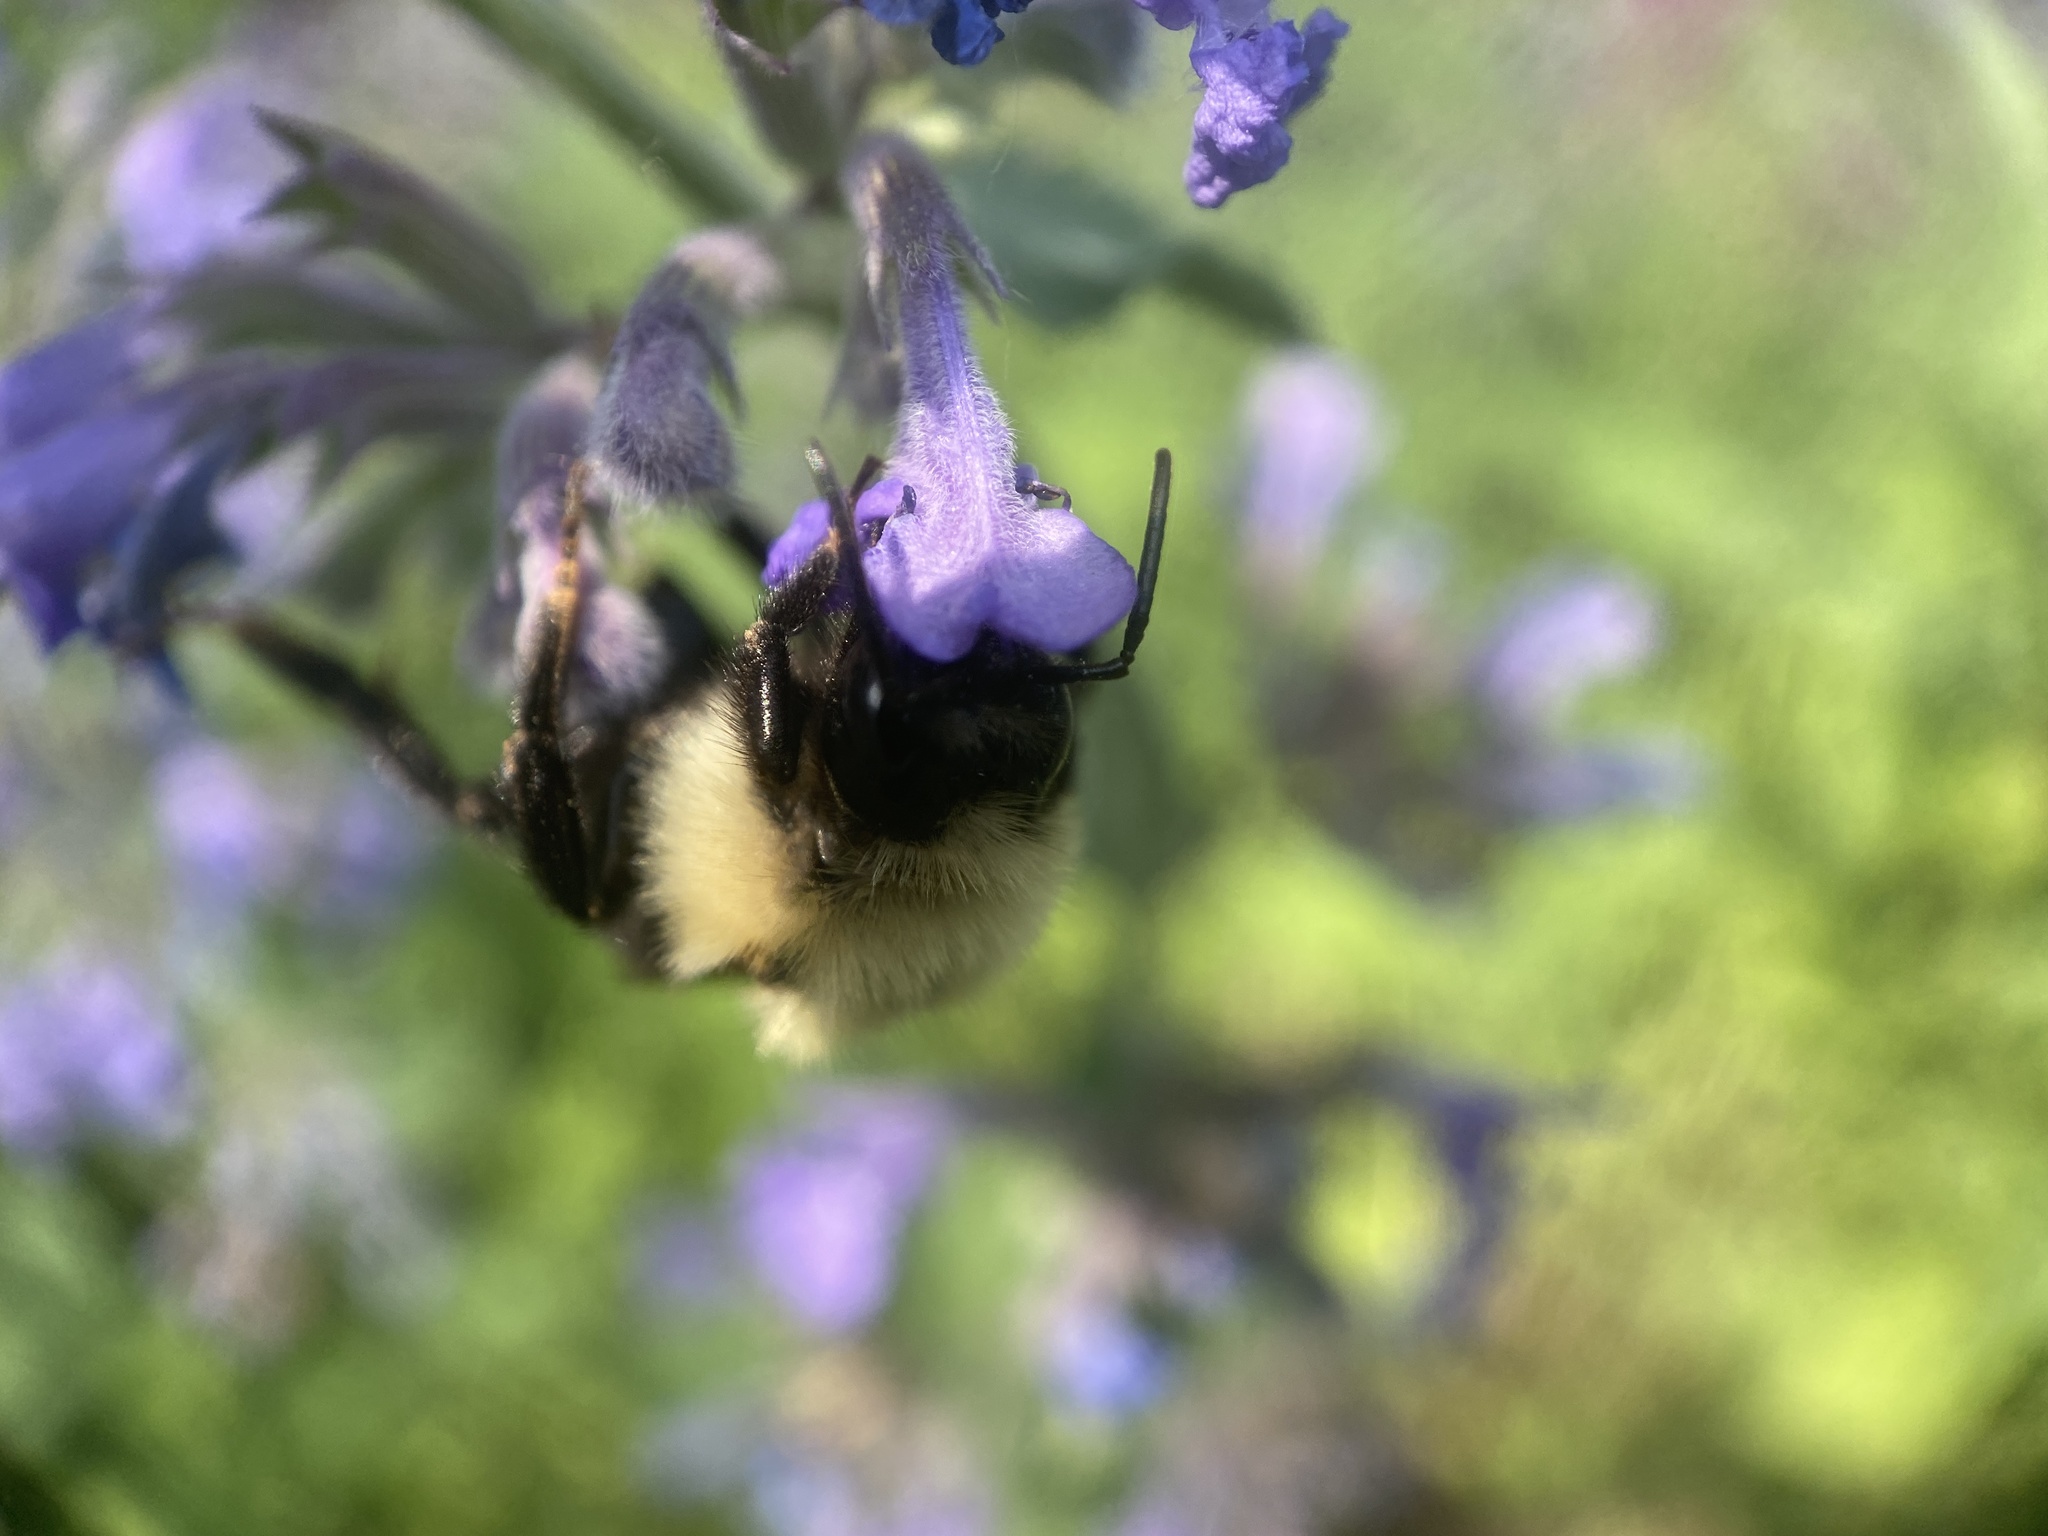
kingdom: Animalia
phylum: Arthropoda
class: Insecta
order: Hymenoptera
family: Apidae
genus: Bombus
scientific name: Bombus citrinus
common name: Lemon cuckoo bumble bee
